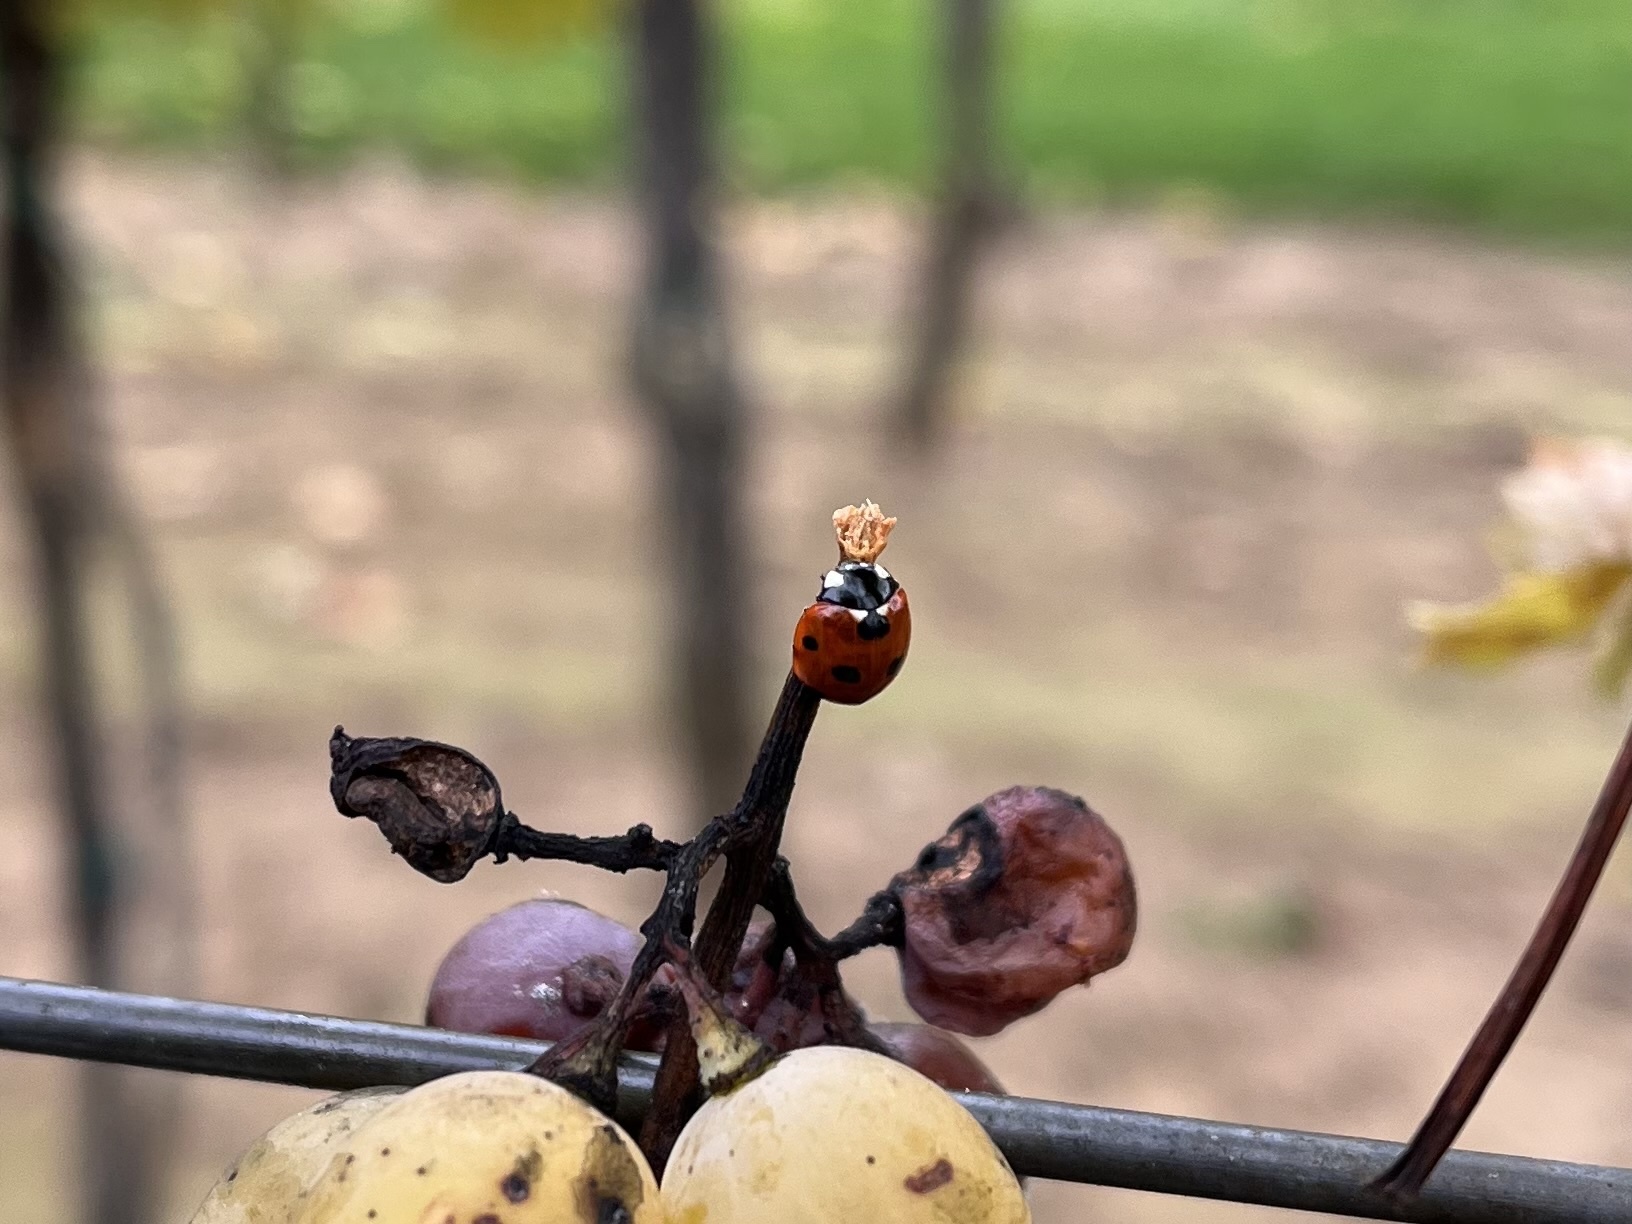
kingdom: Animalia
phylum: Arthropoda
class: Insecta
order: Coleoptera
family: Coccinellidae
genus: Coccinella
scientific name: Coccinella septempunctata
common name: Sevenspotted lady beetle
